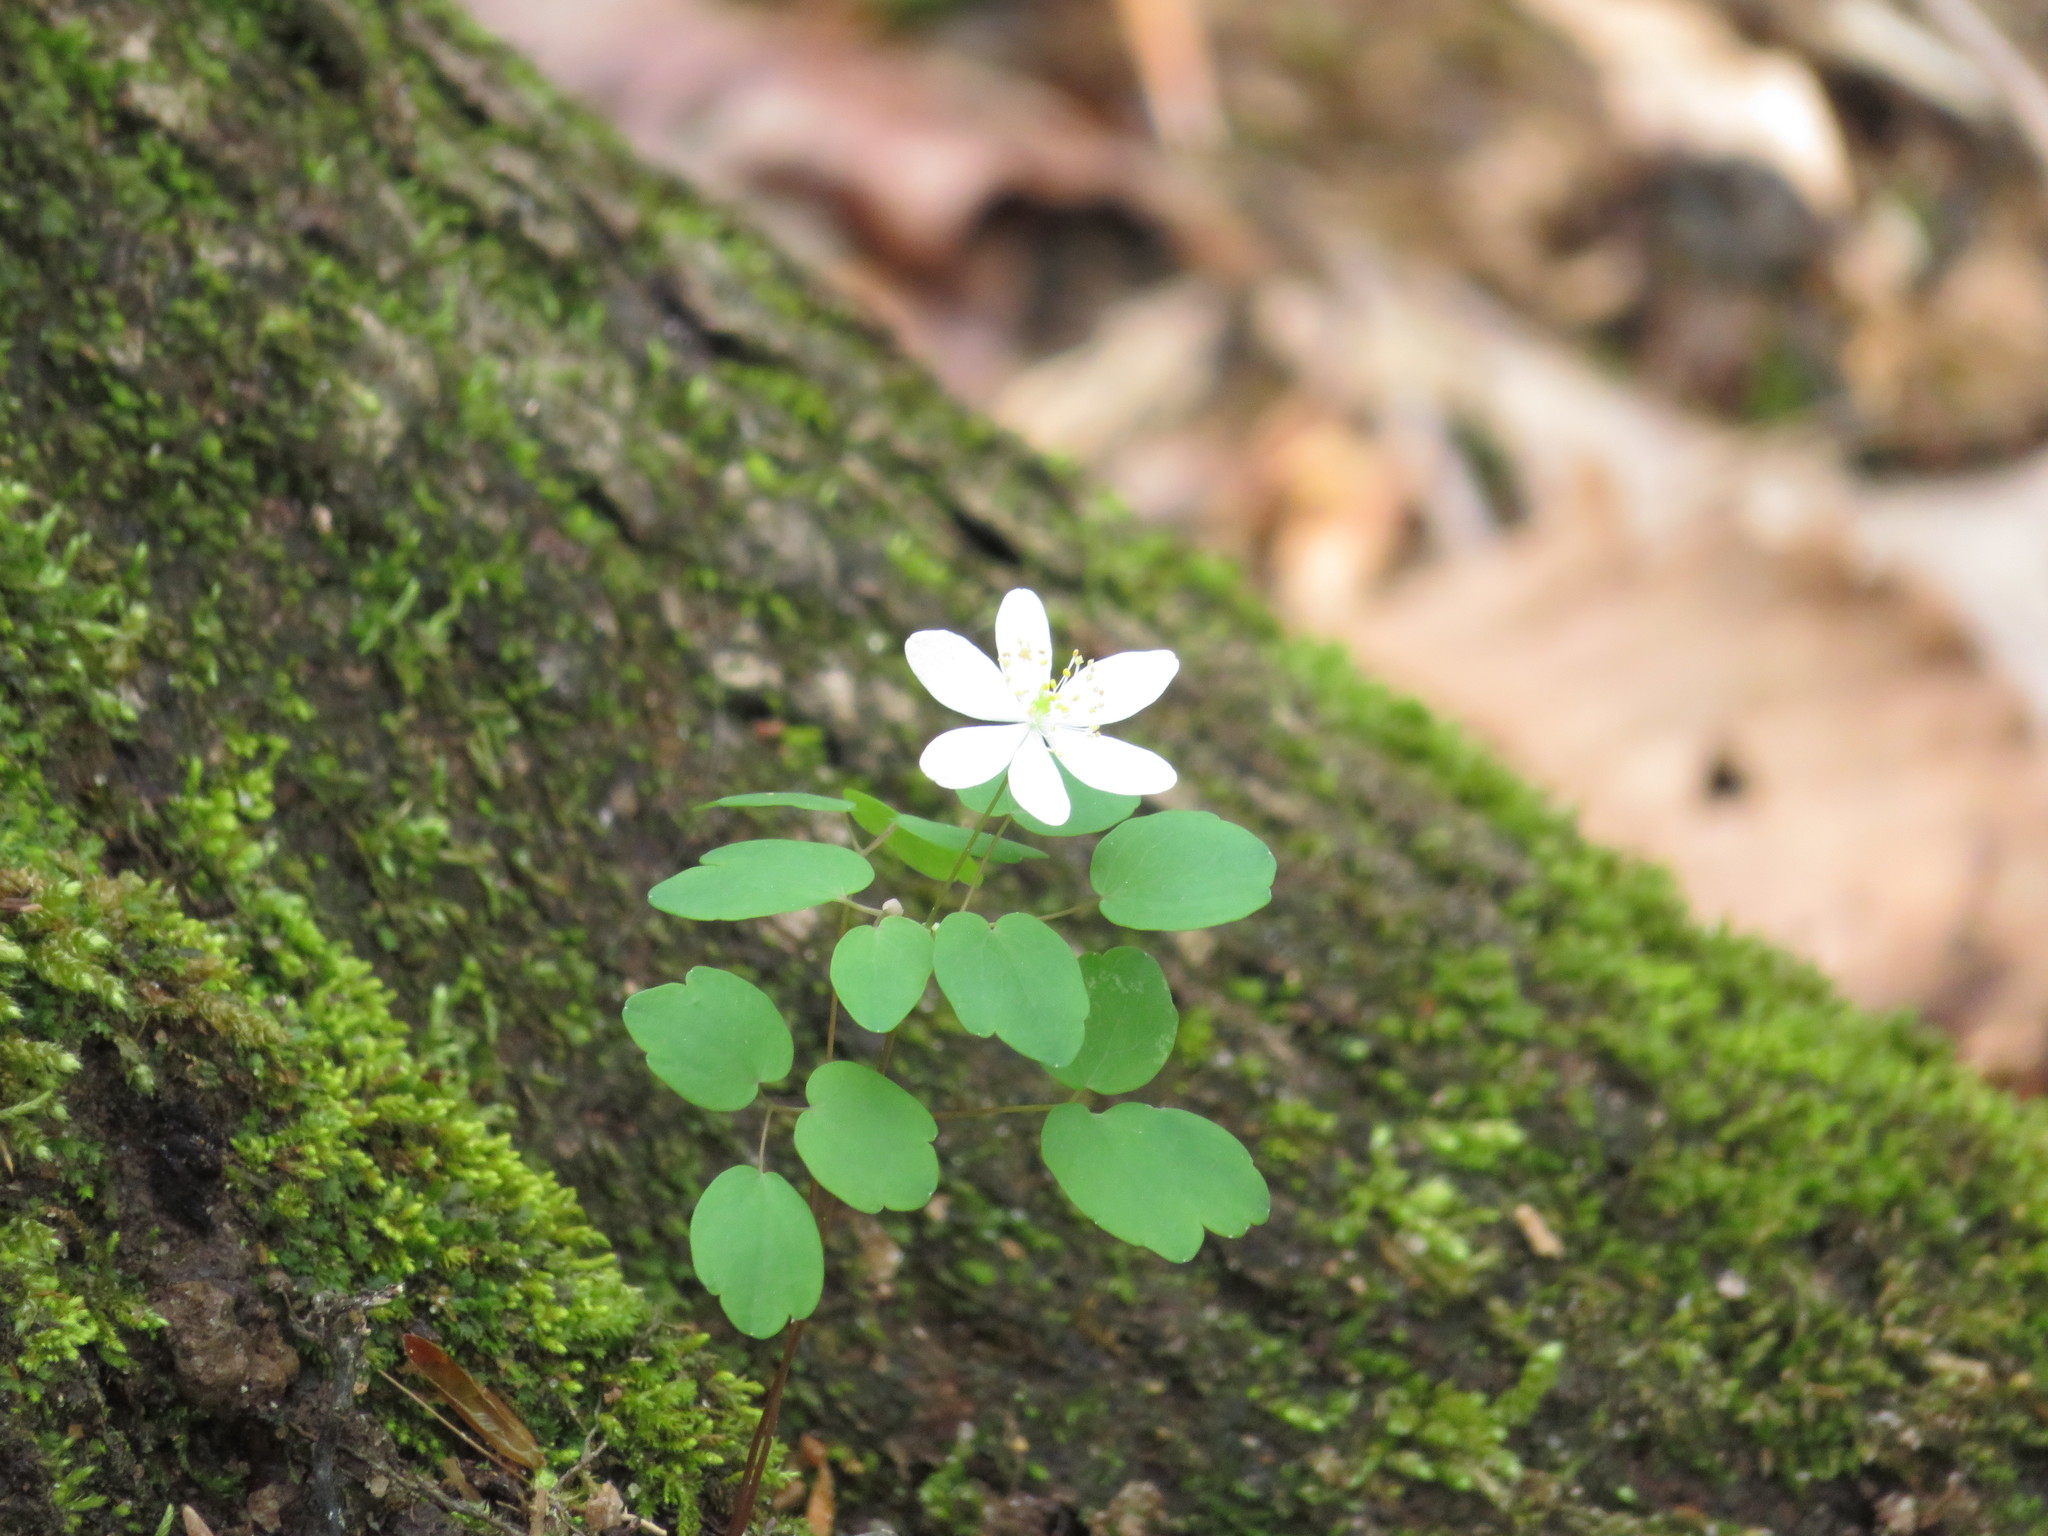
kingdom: Plantae
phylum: Tracheophyta
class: Magnoliopsida
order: Ranunculales
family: Ranunculaceae
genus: Thalictrum
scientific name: Thalictrum thalictroides
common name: Rue-anemone
